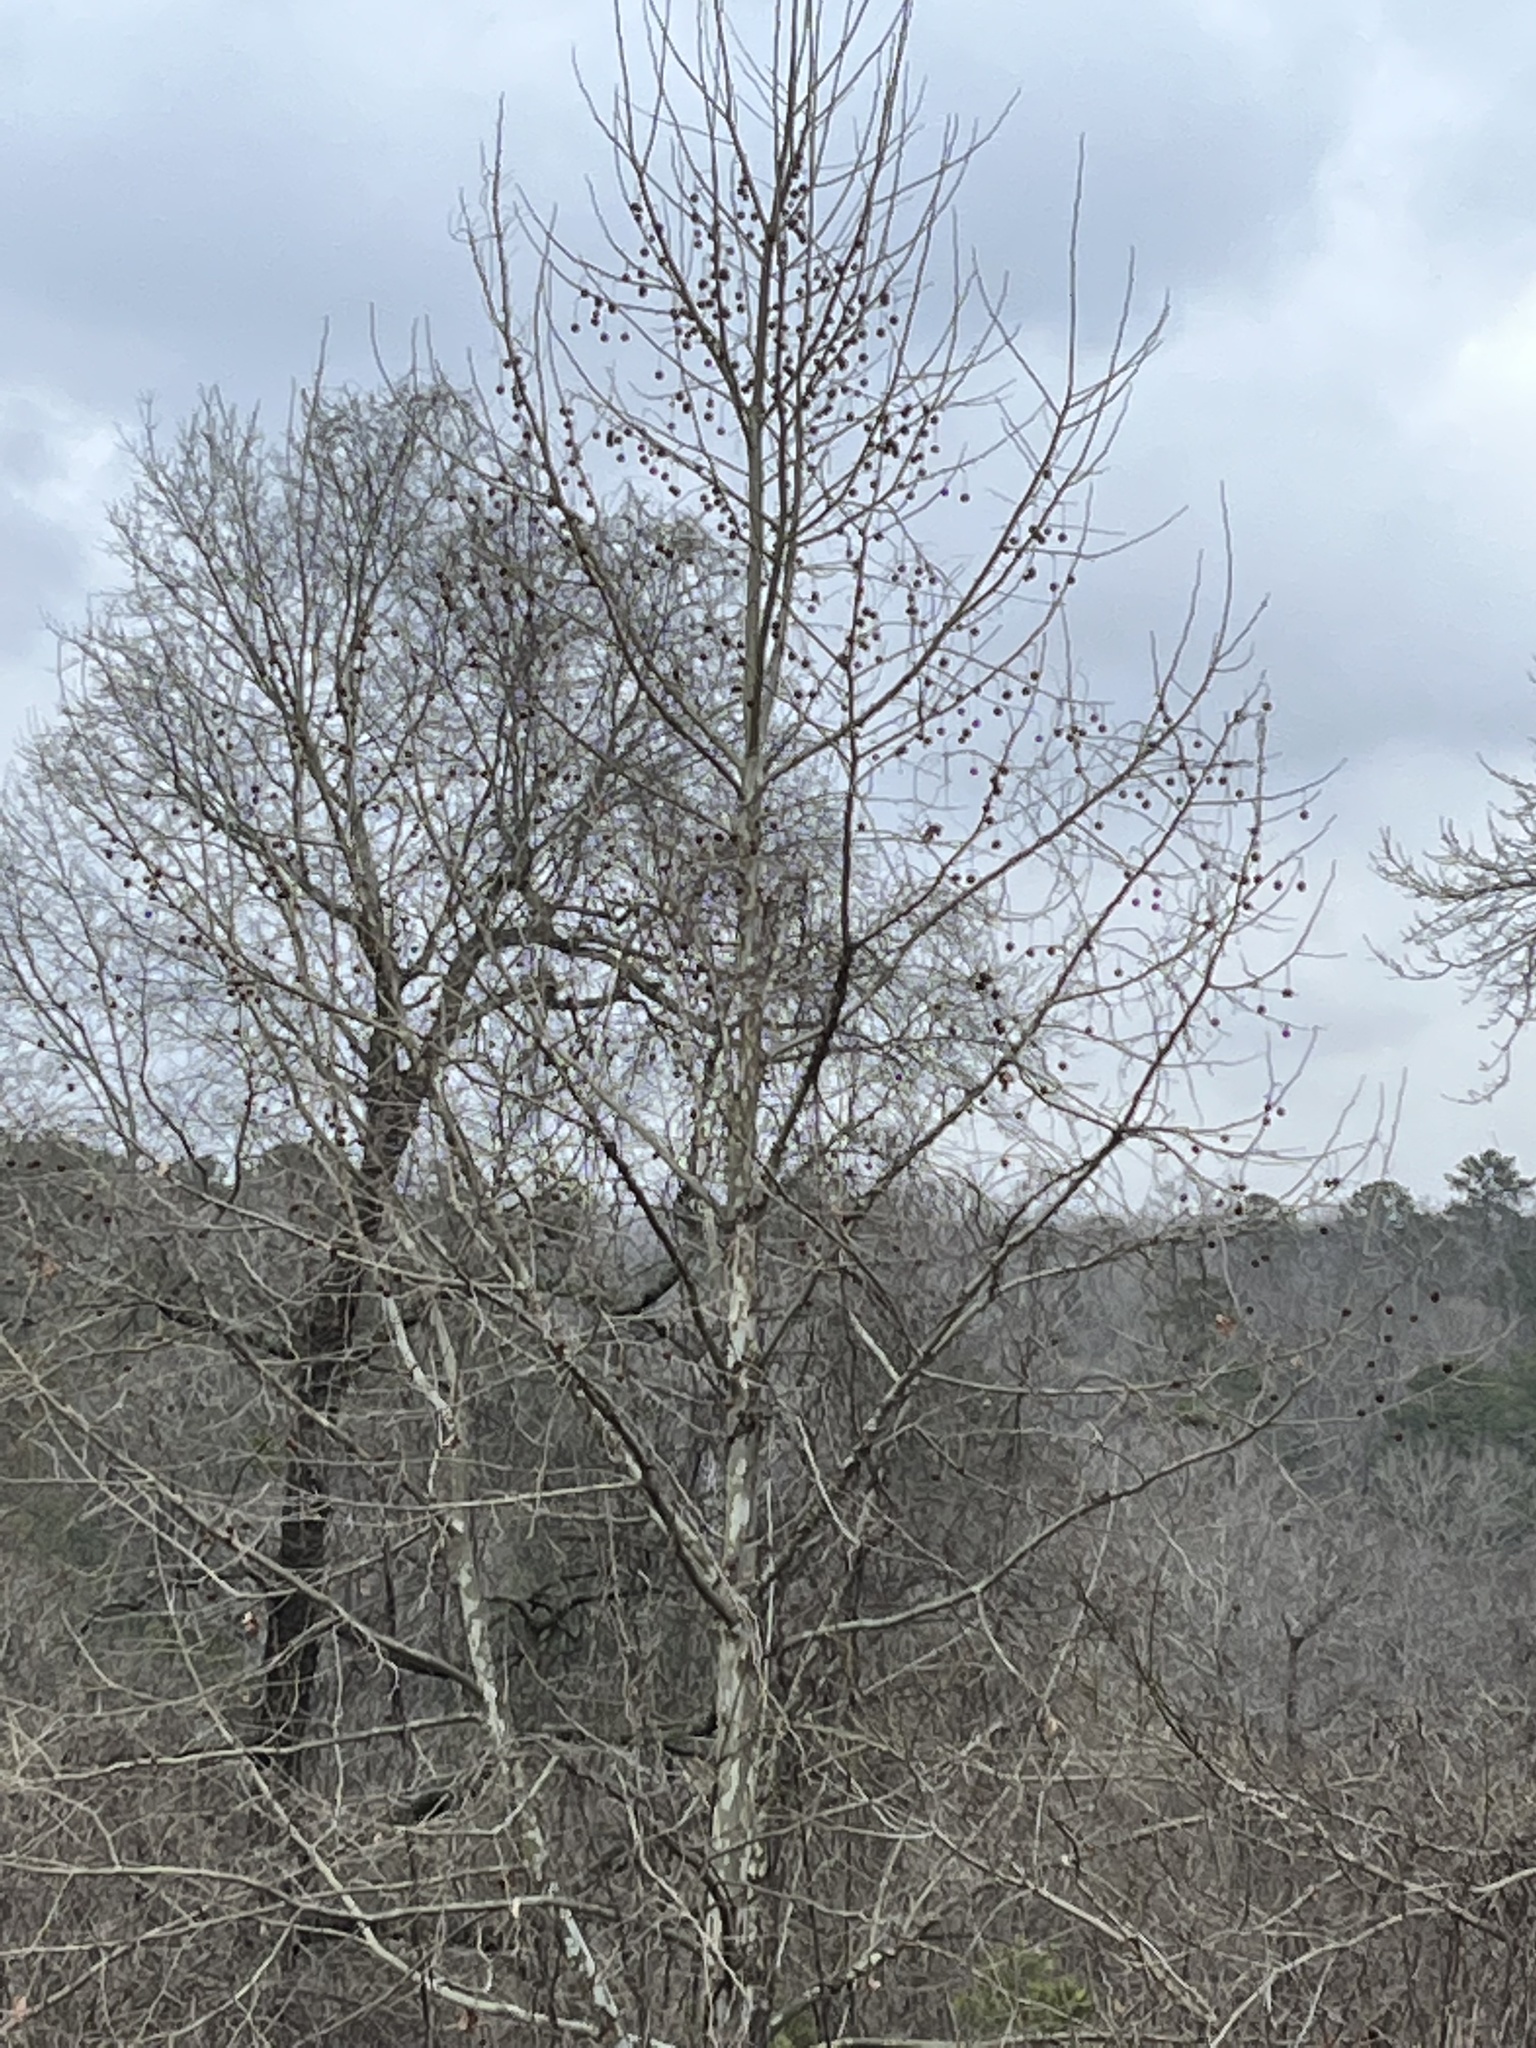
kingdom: Plantae
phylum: Tracheophyta
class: Magnoliopsida
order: Proteales
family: Platanaceae
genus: Platanus
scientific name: Platanus occidentalis
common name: American sycamore
